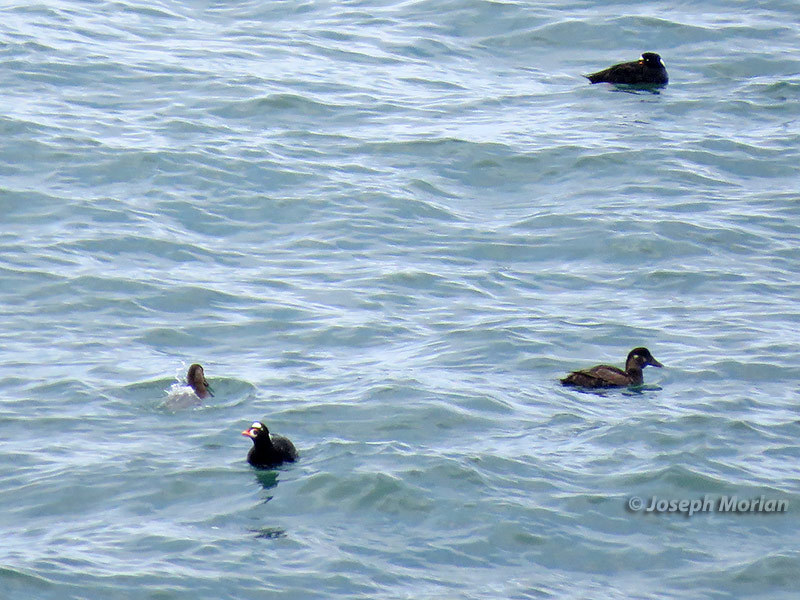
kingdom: Animalia
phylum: Chordata
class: Aves
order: Anseriformes
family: Anatidae
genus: Melanitta
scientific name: Melanitta perspicillata
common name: Surf scoter
